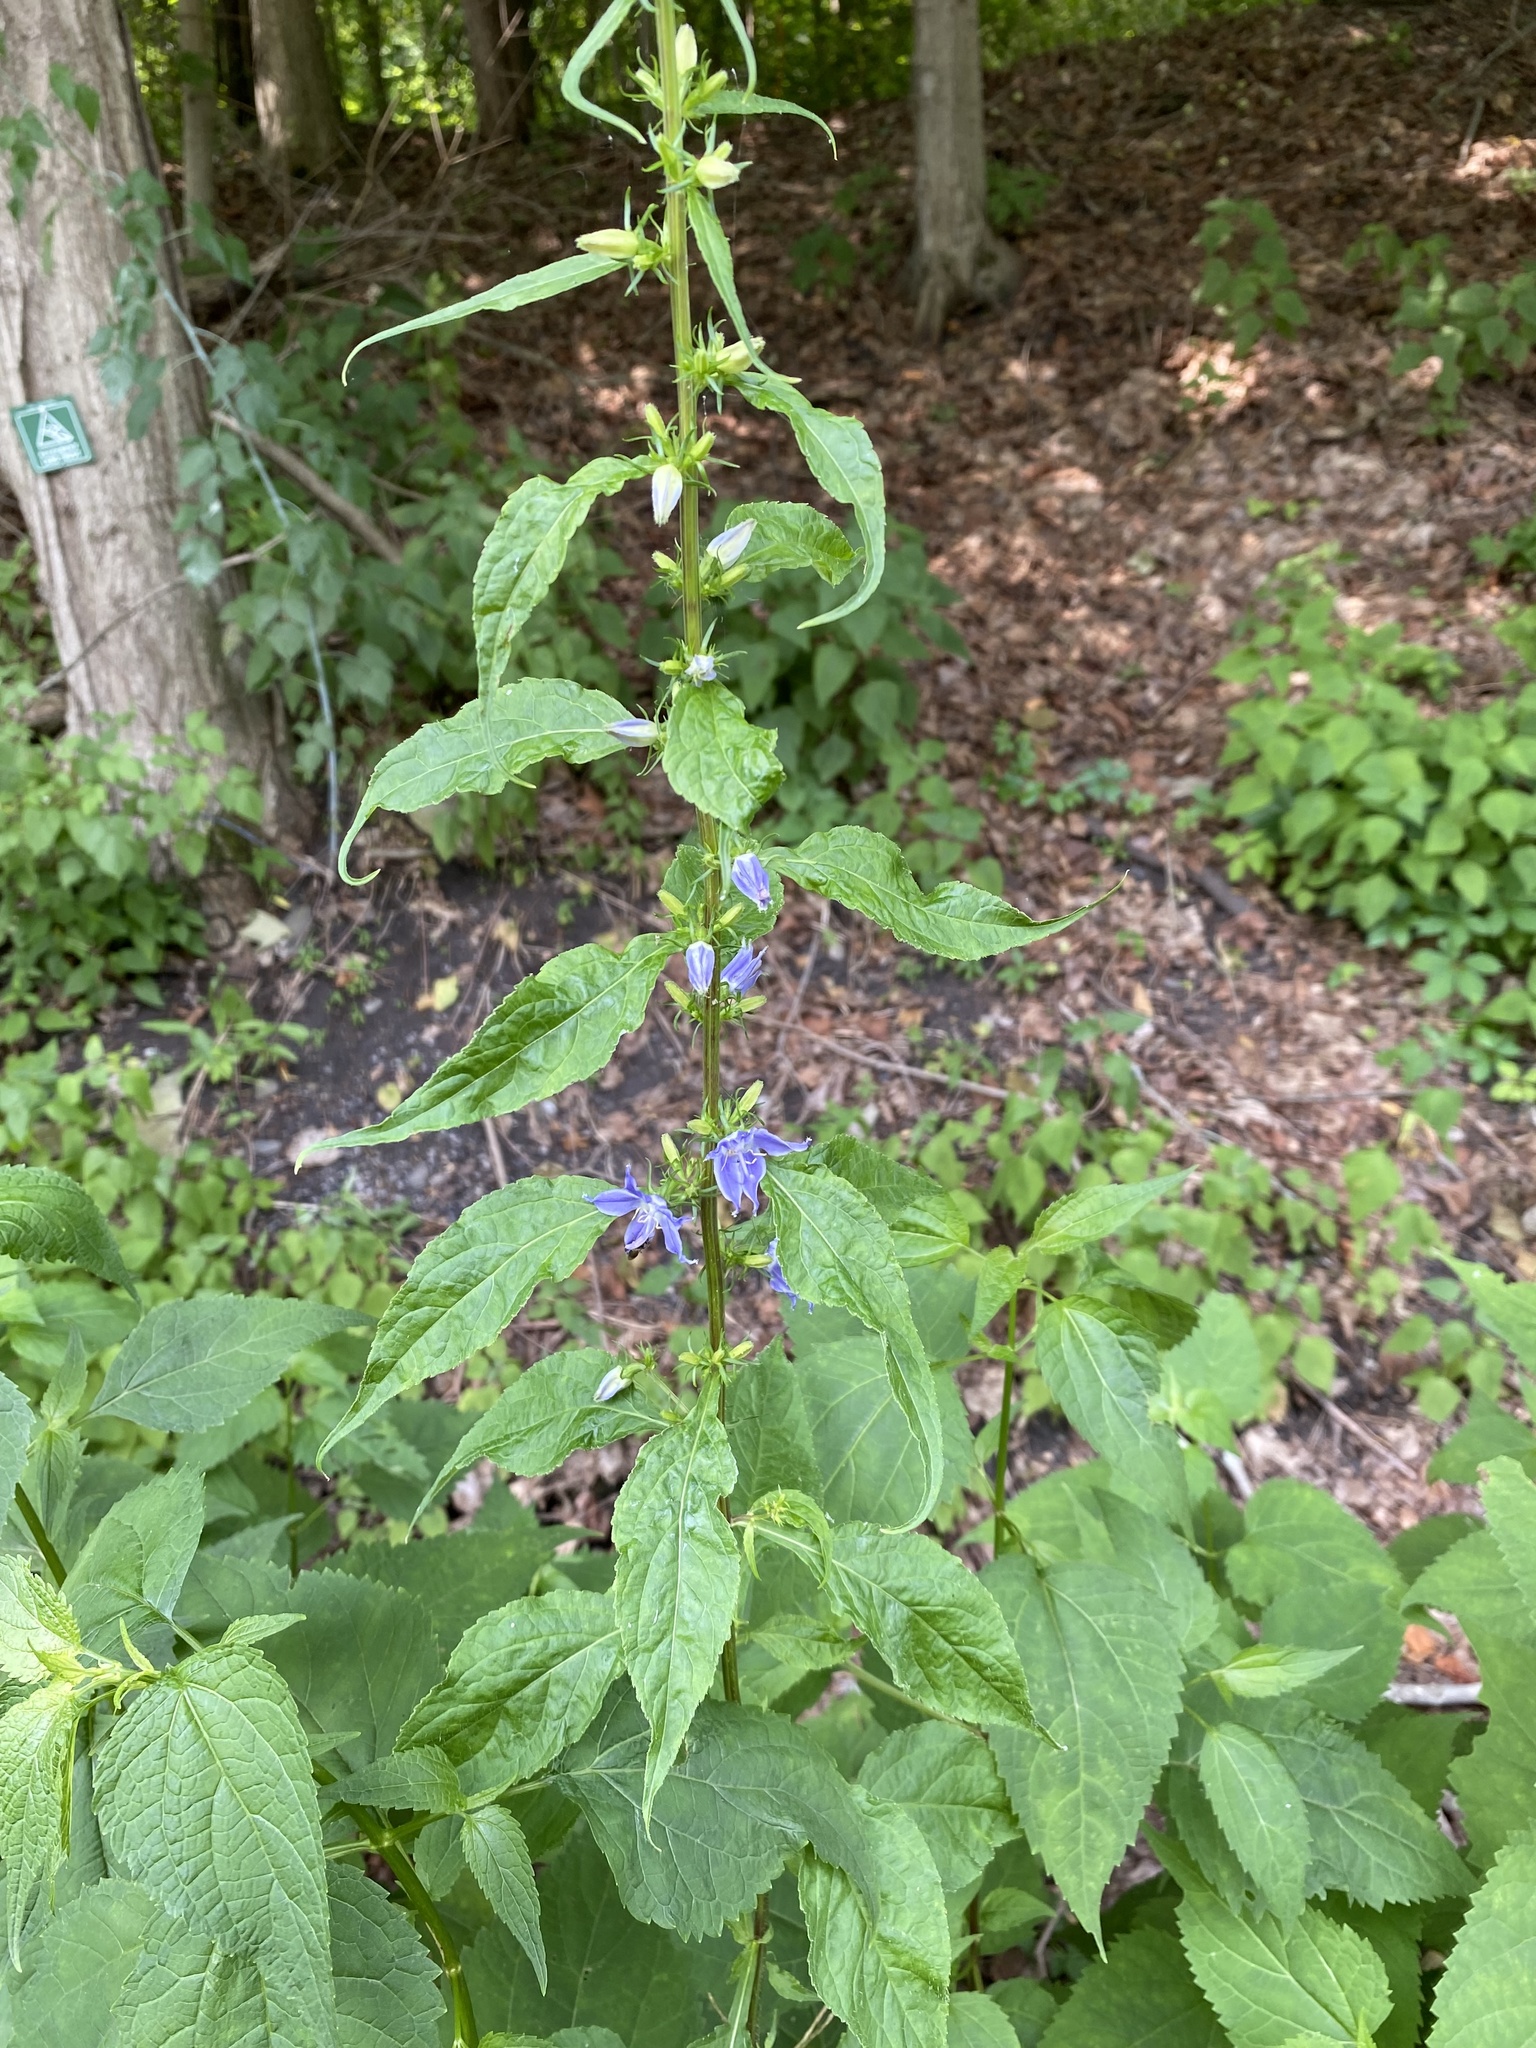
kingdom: Plantae
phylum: Tracheophyta
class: Magnoliopsida
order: Asterales
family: Campanulaceae
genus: Campanulastrum
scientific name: Campanulastrum americanum
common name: American bellflower
